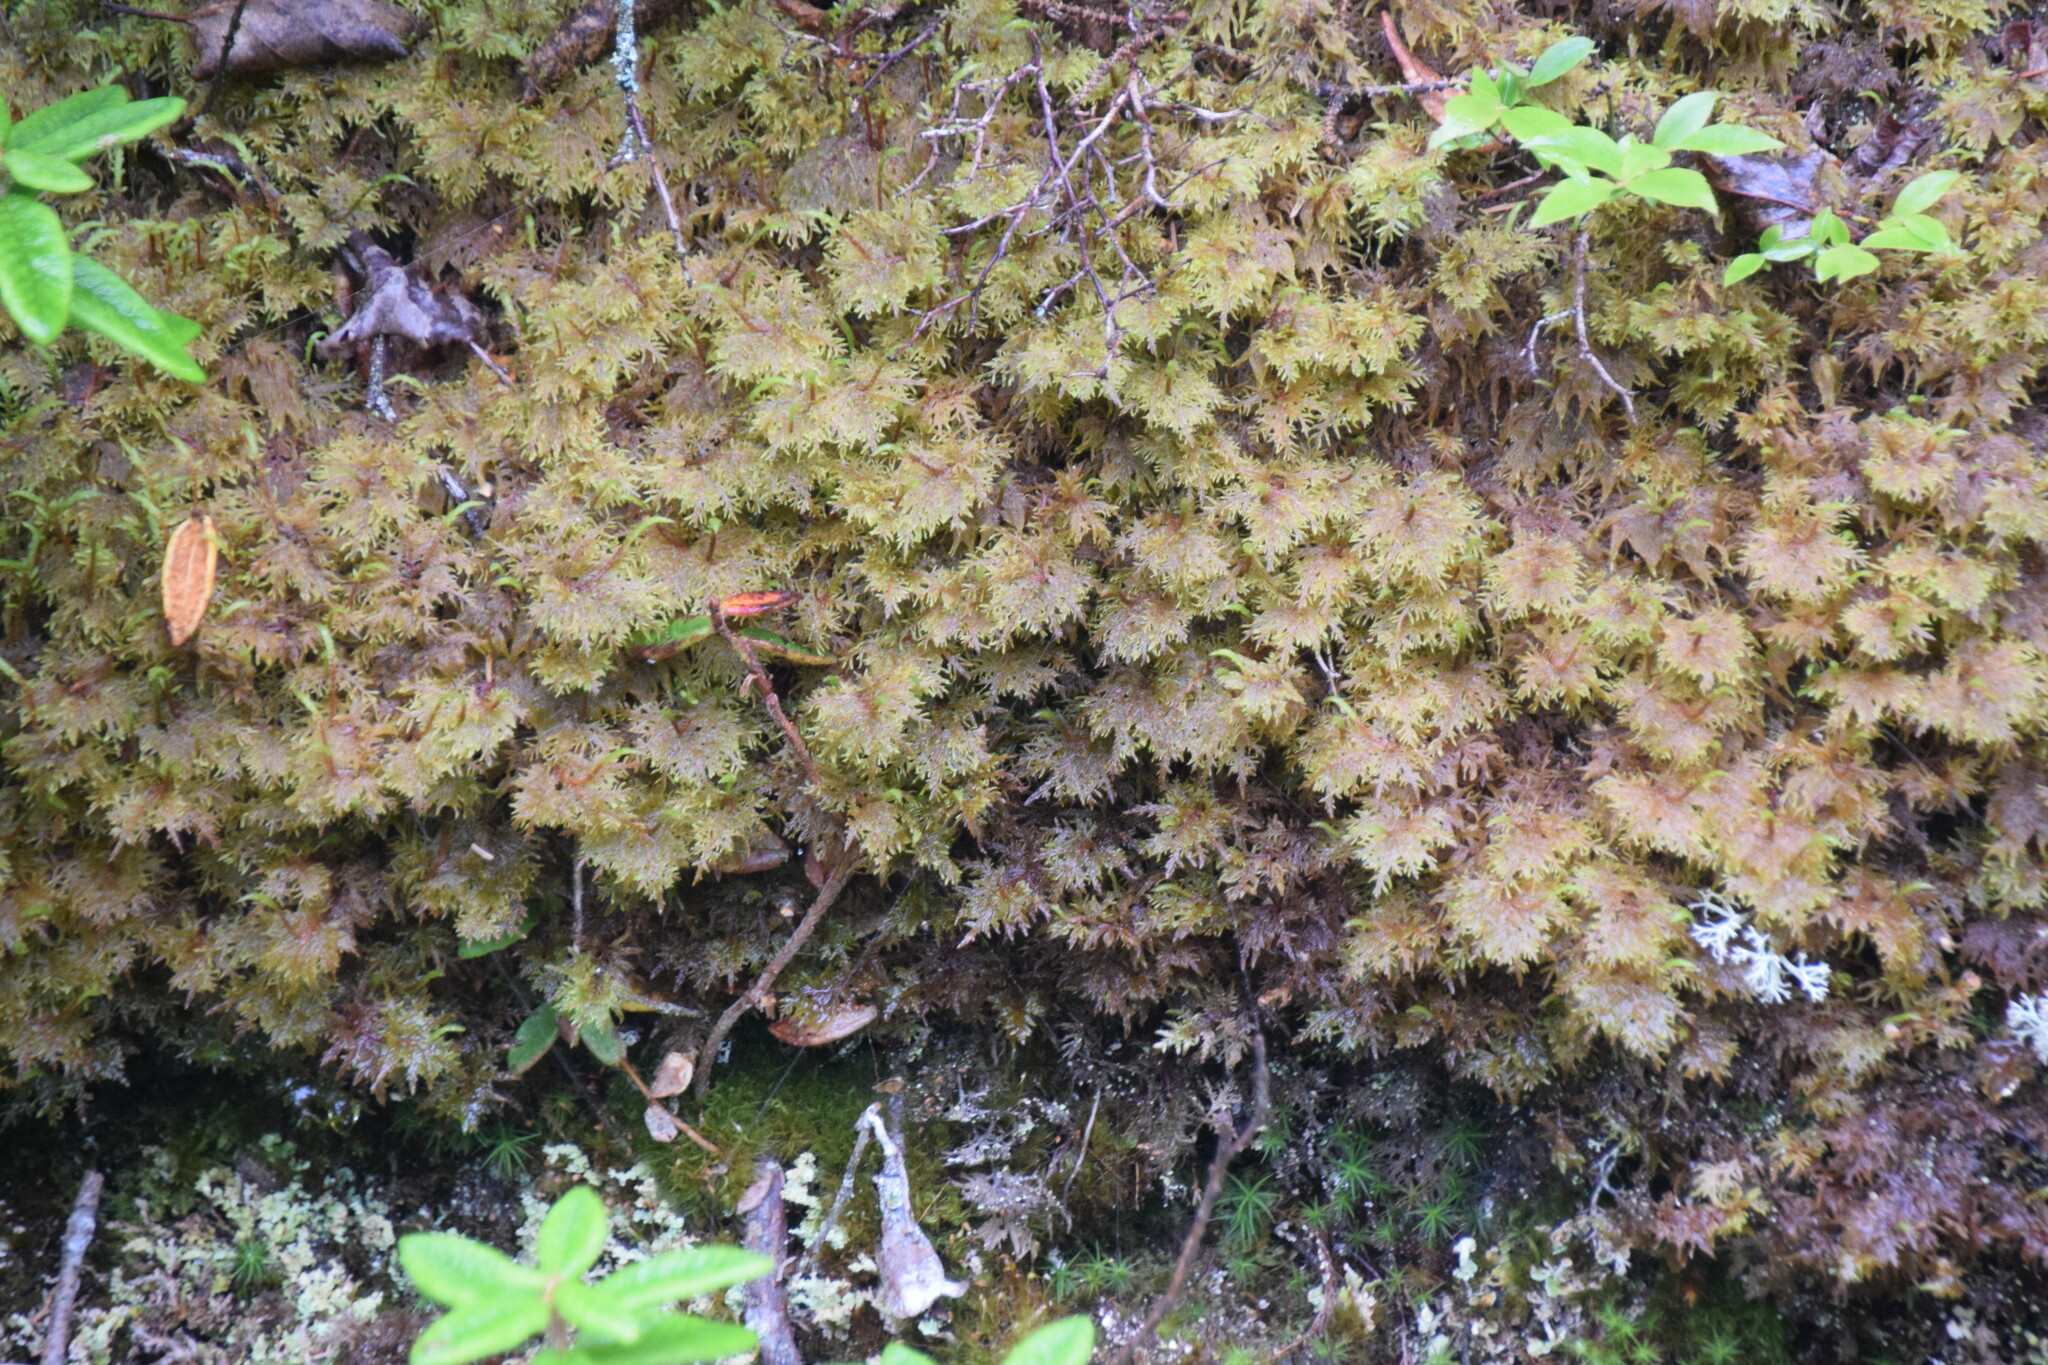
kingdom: Plantae
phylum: Bryophyta
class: Bryopsida
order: Hypnales
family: Hylocomiaceae
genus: Hylocomium
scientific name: Hylocomium splendens
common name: Stairstep moss
